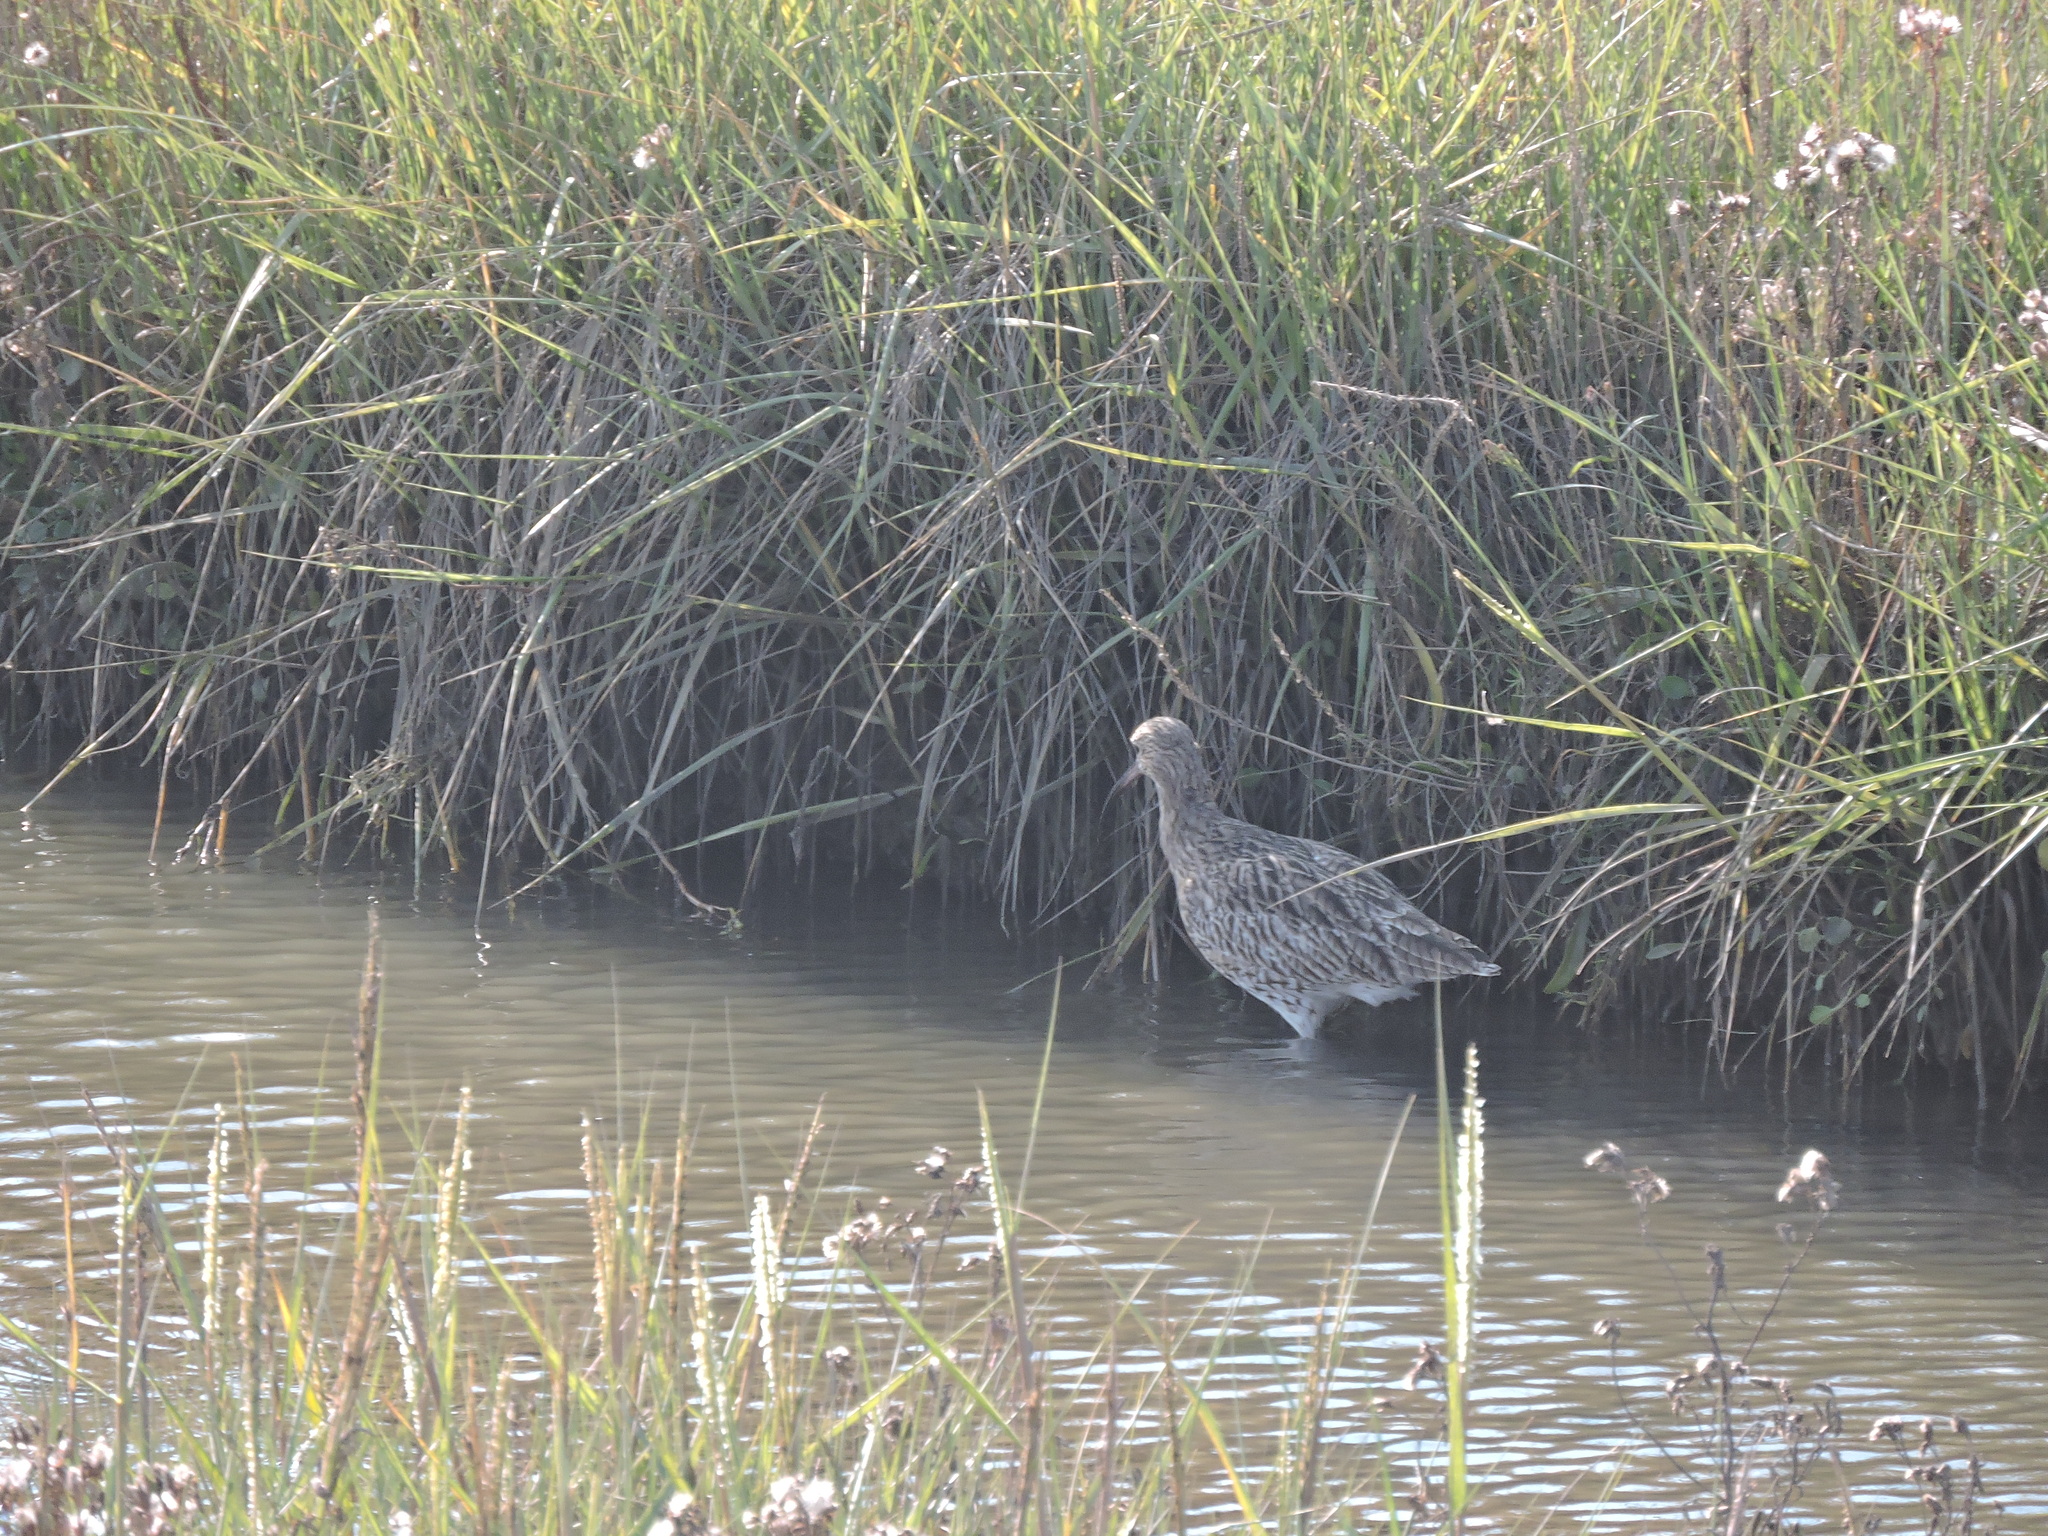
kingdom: Animalia
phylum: Chordata
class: Aves
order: Charadriiformes
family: Scolopacidae
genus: Numenius
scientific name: Numenius arquata
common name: Eurasian curlew
